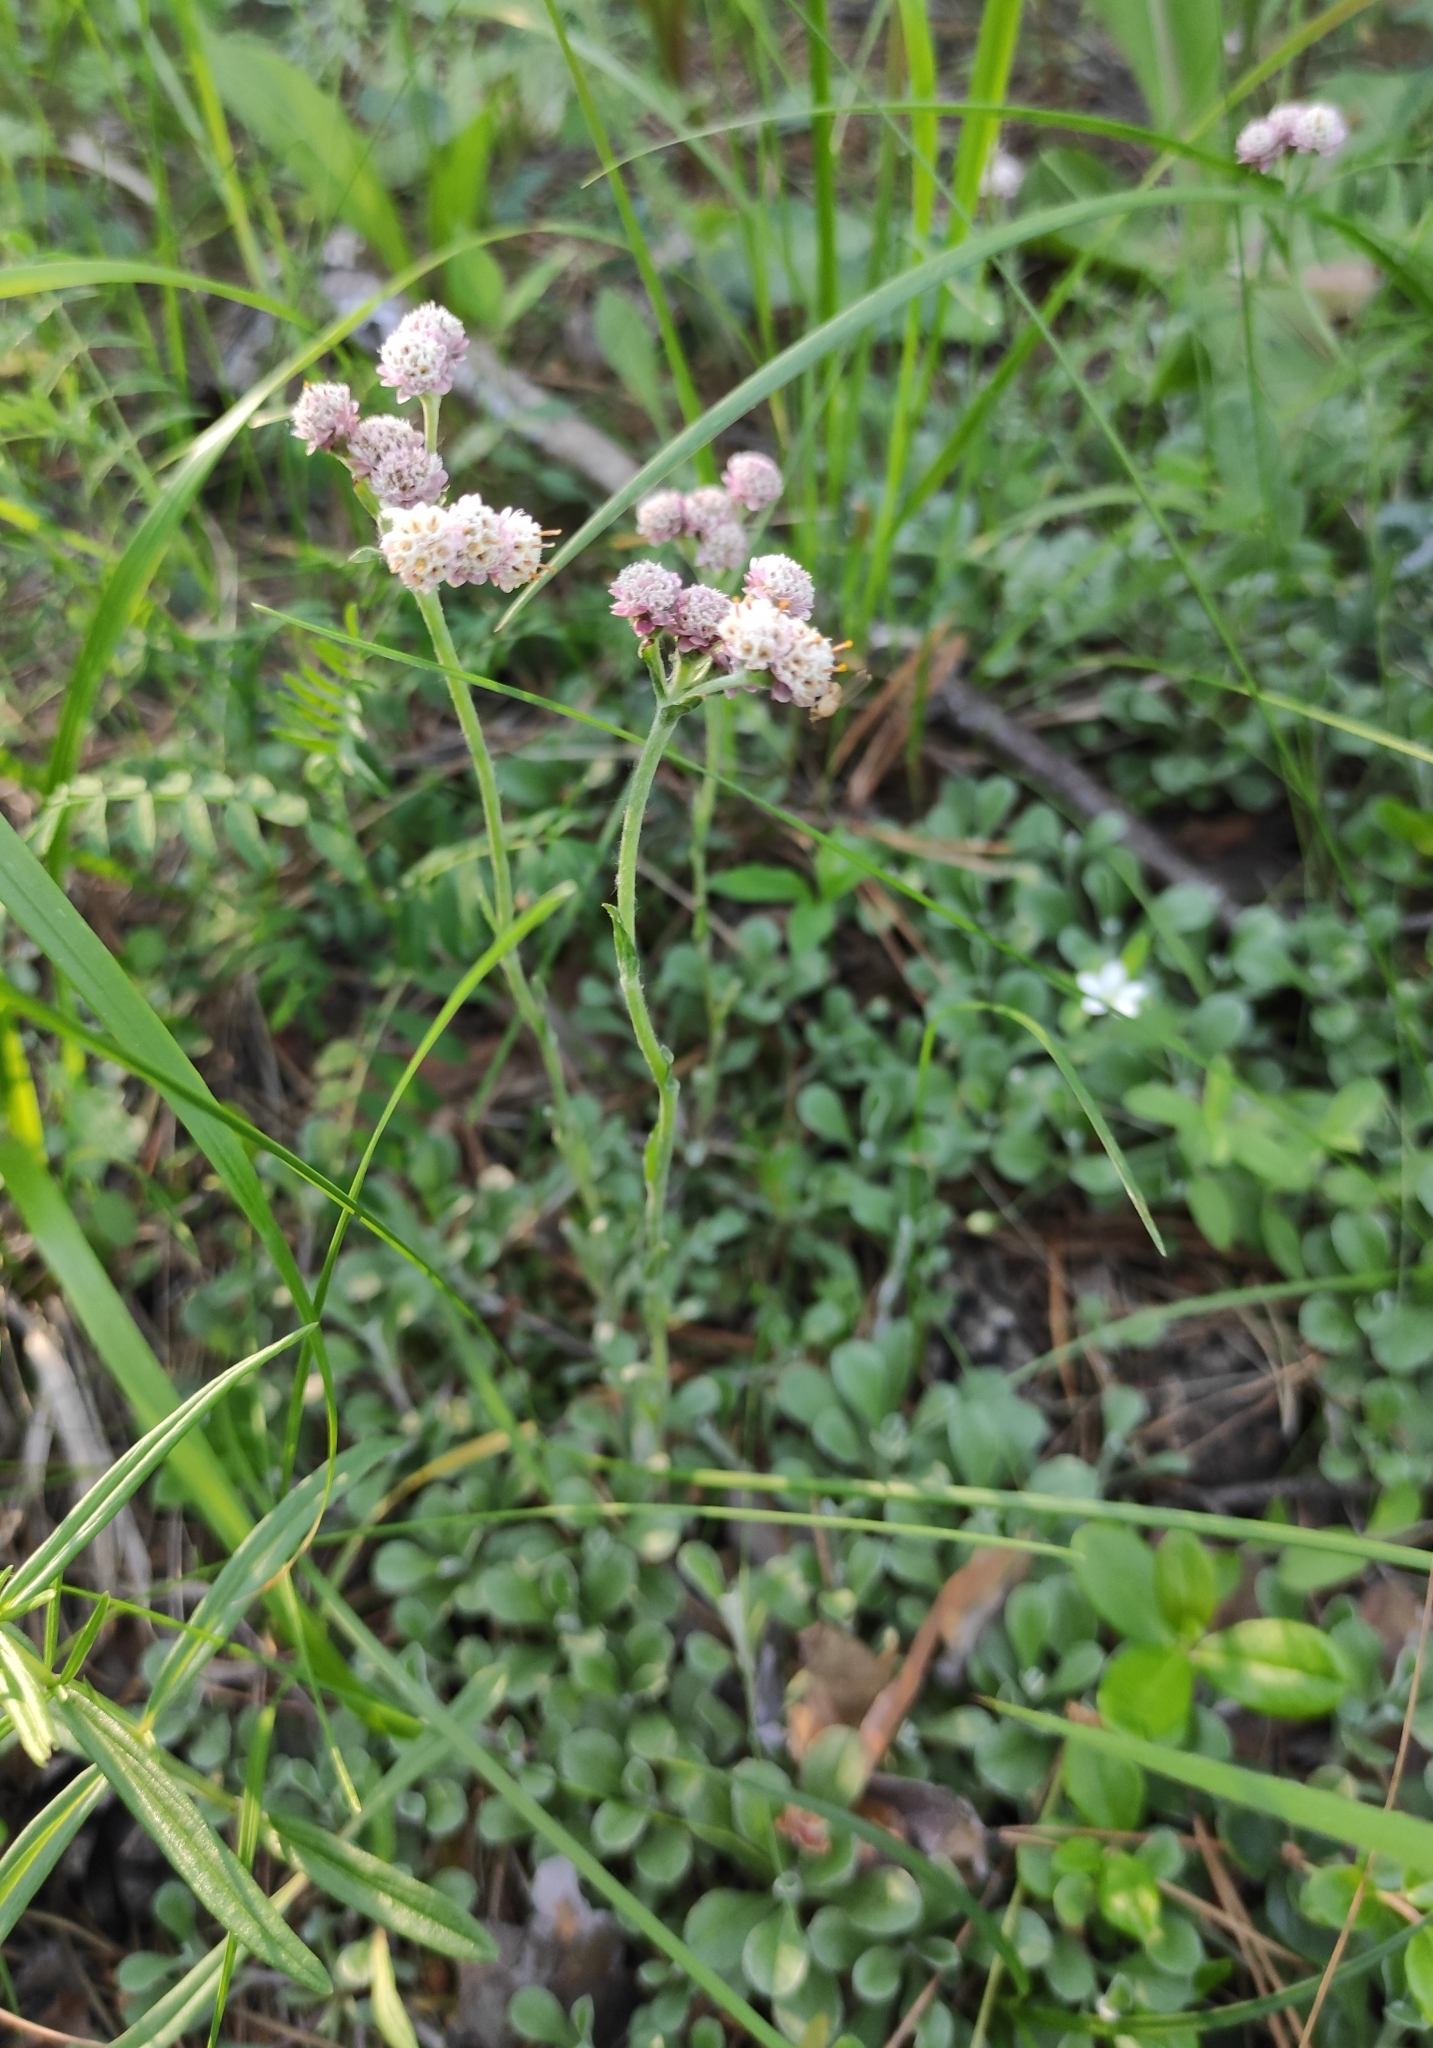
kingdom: Plantae
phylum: Tracheophyta
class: Magnoliopsida
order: Asterales
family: Asteraceae
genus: Antennaria
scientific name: Antennaria dioica
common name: Mountain everlasting
